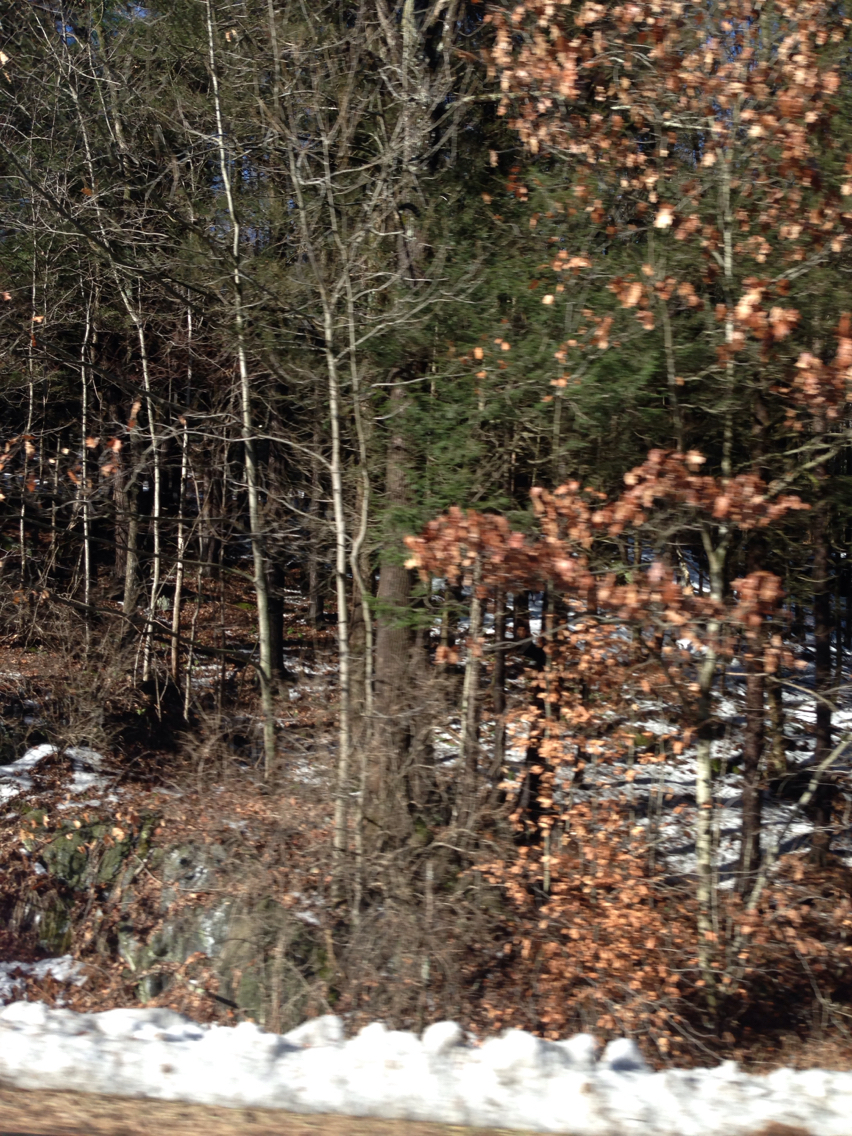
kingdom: Plantae
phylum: Tracheophyta
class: Magnoliopsida
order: Fagales
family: Fagaceae
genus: Quercus
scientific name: Quercus rubra
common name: Red oak
